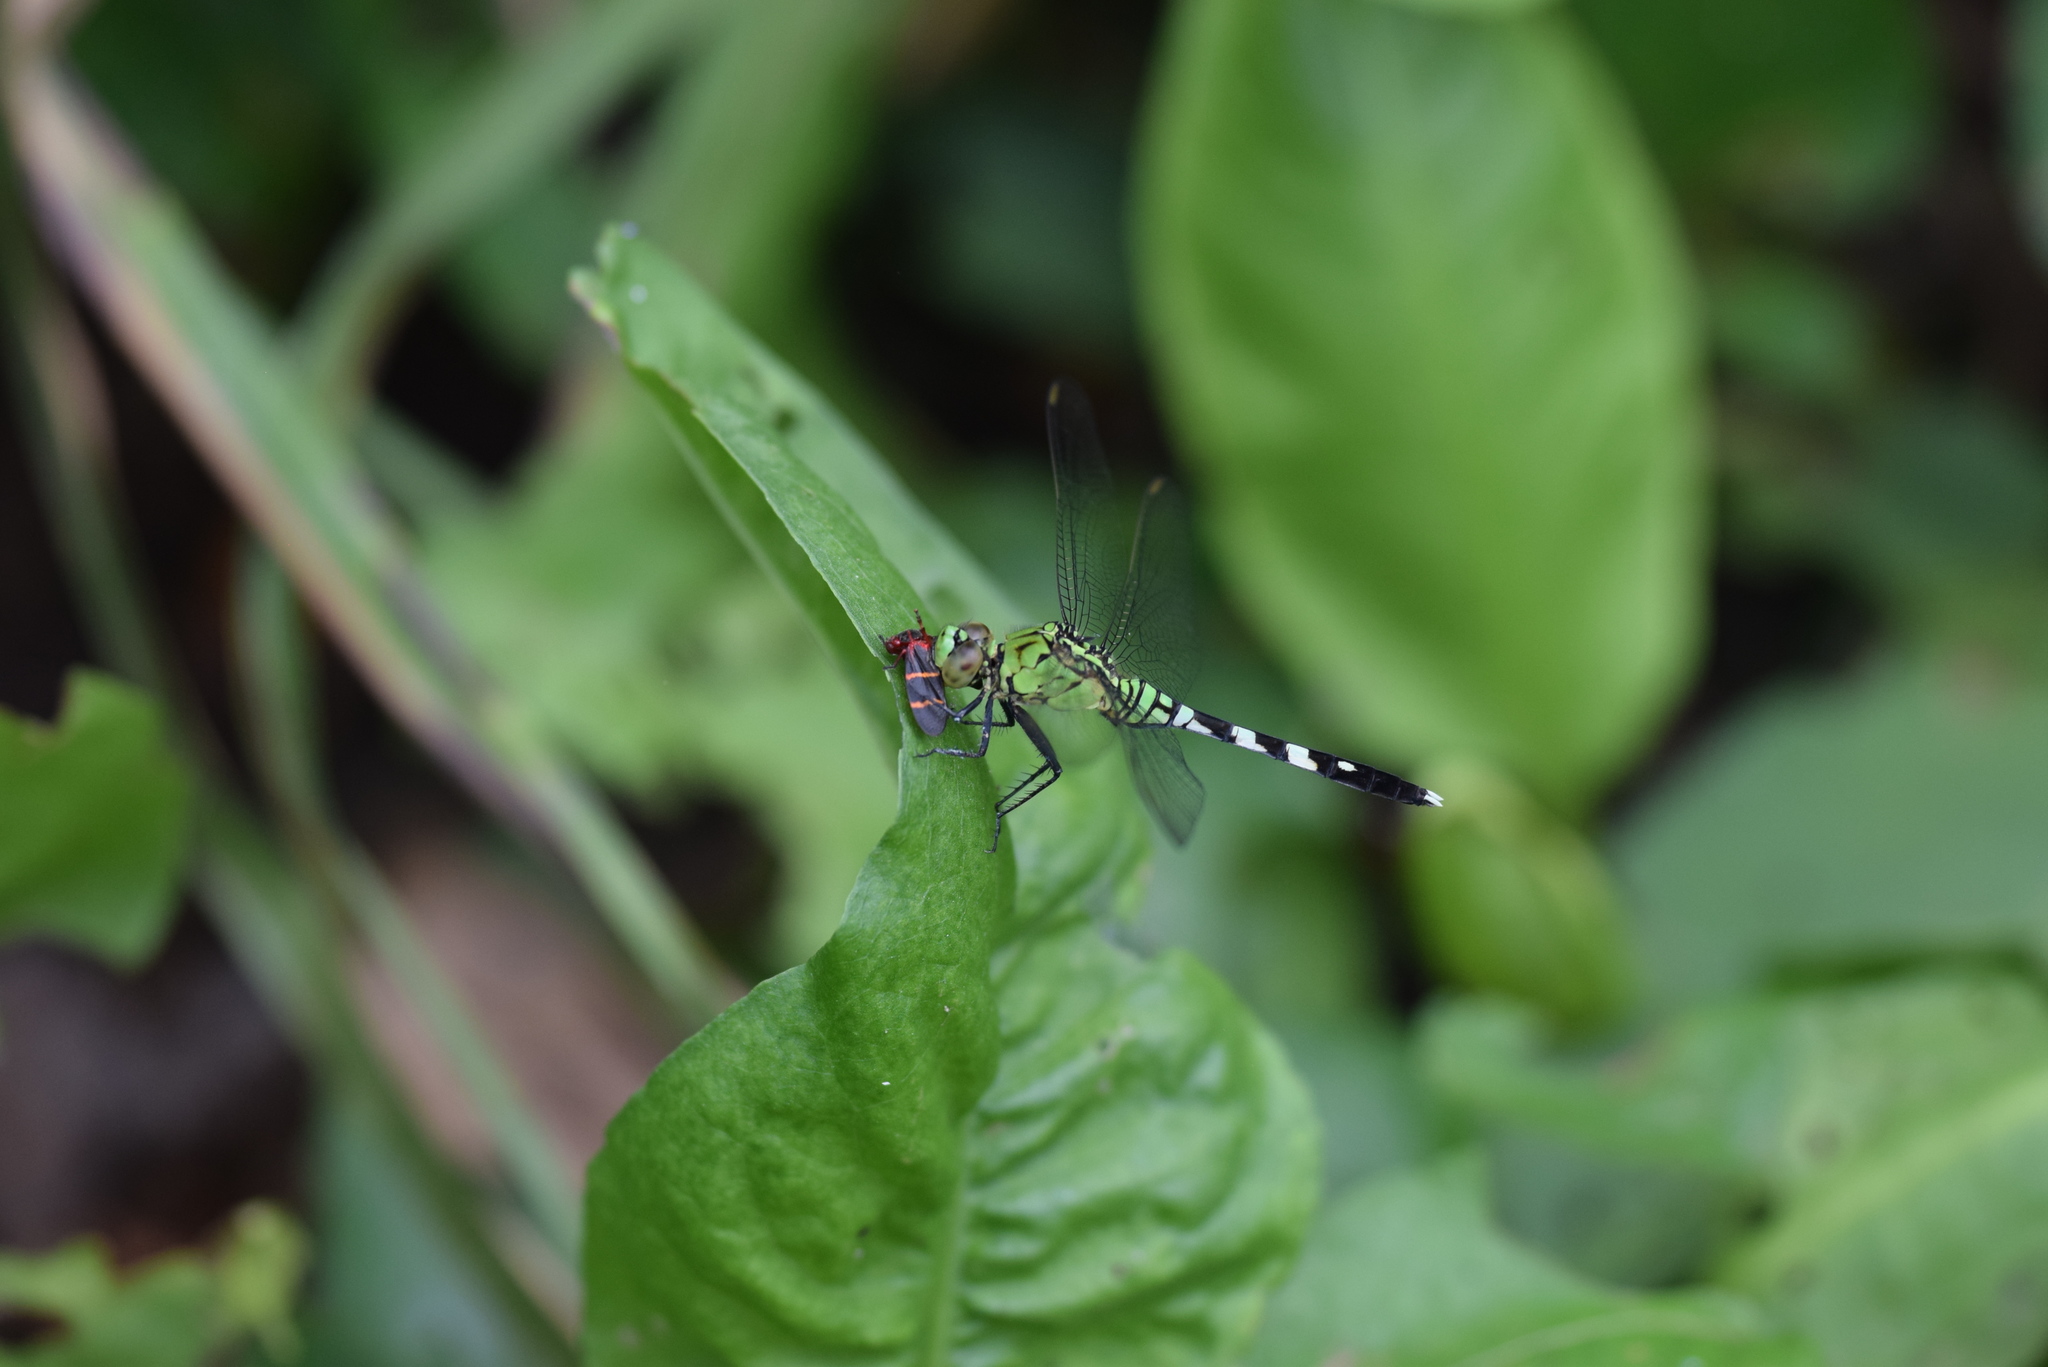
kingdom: Animalia
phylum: Arthropoda
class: Insecta
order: Odonata
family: Libellulidae
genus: Erythemis
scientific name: Erythemis simplicicollis
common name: Eastern pondhawk
